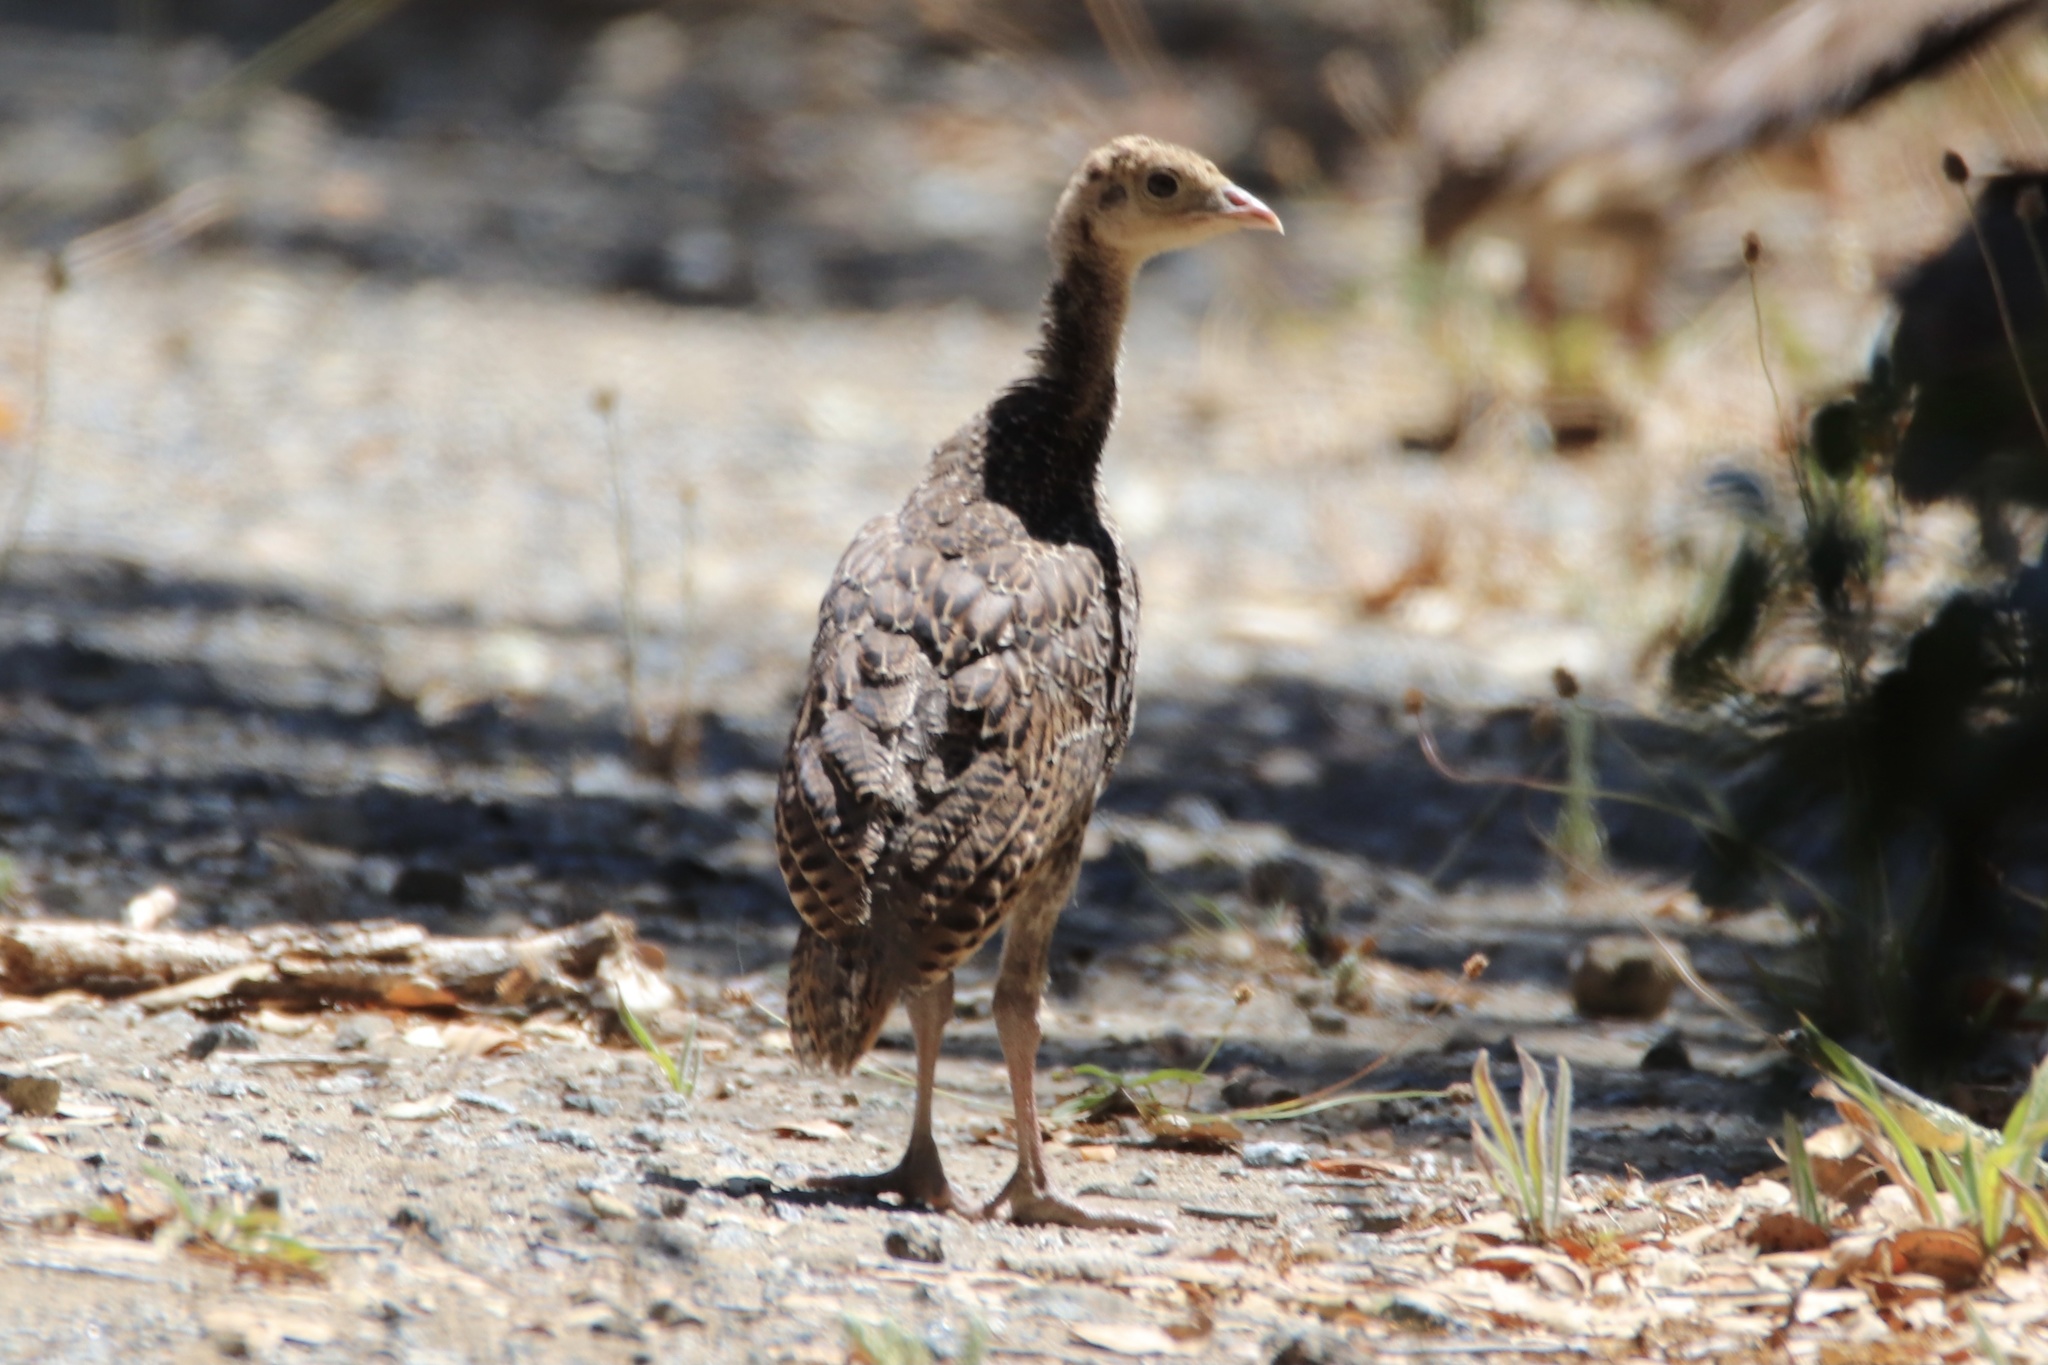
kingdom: Animalia
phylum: Chordata
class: Aves
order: Galliformes
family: Phasianidae
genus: Meleagris
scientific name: Meleagris gallopavo
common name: Wild turkey
